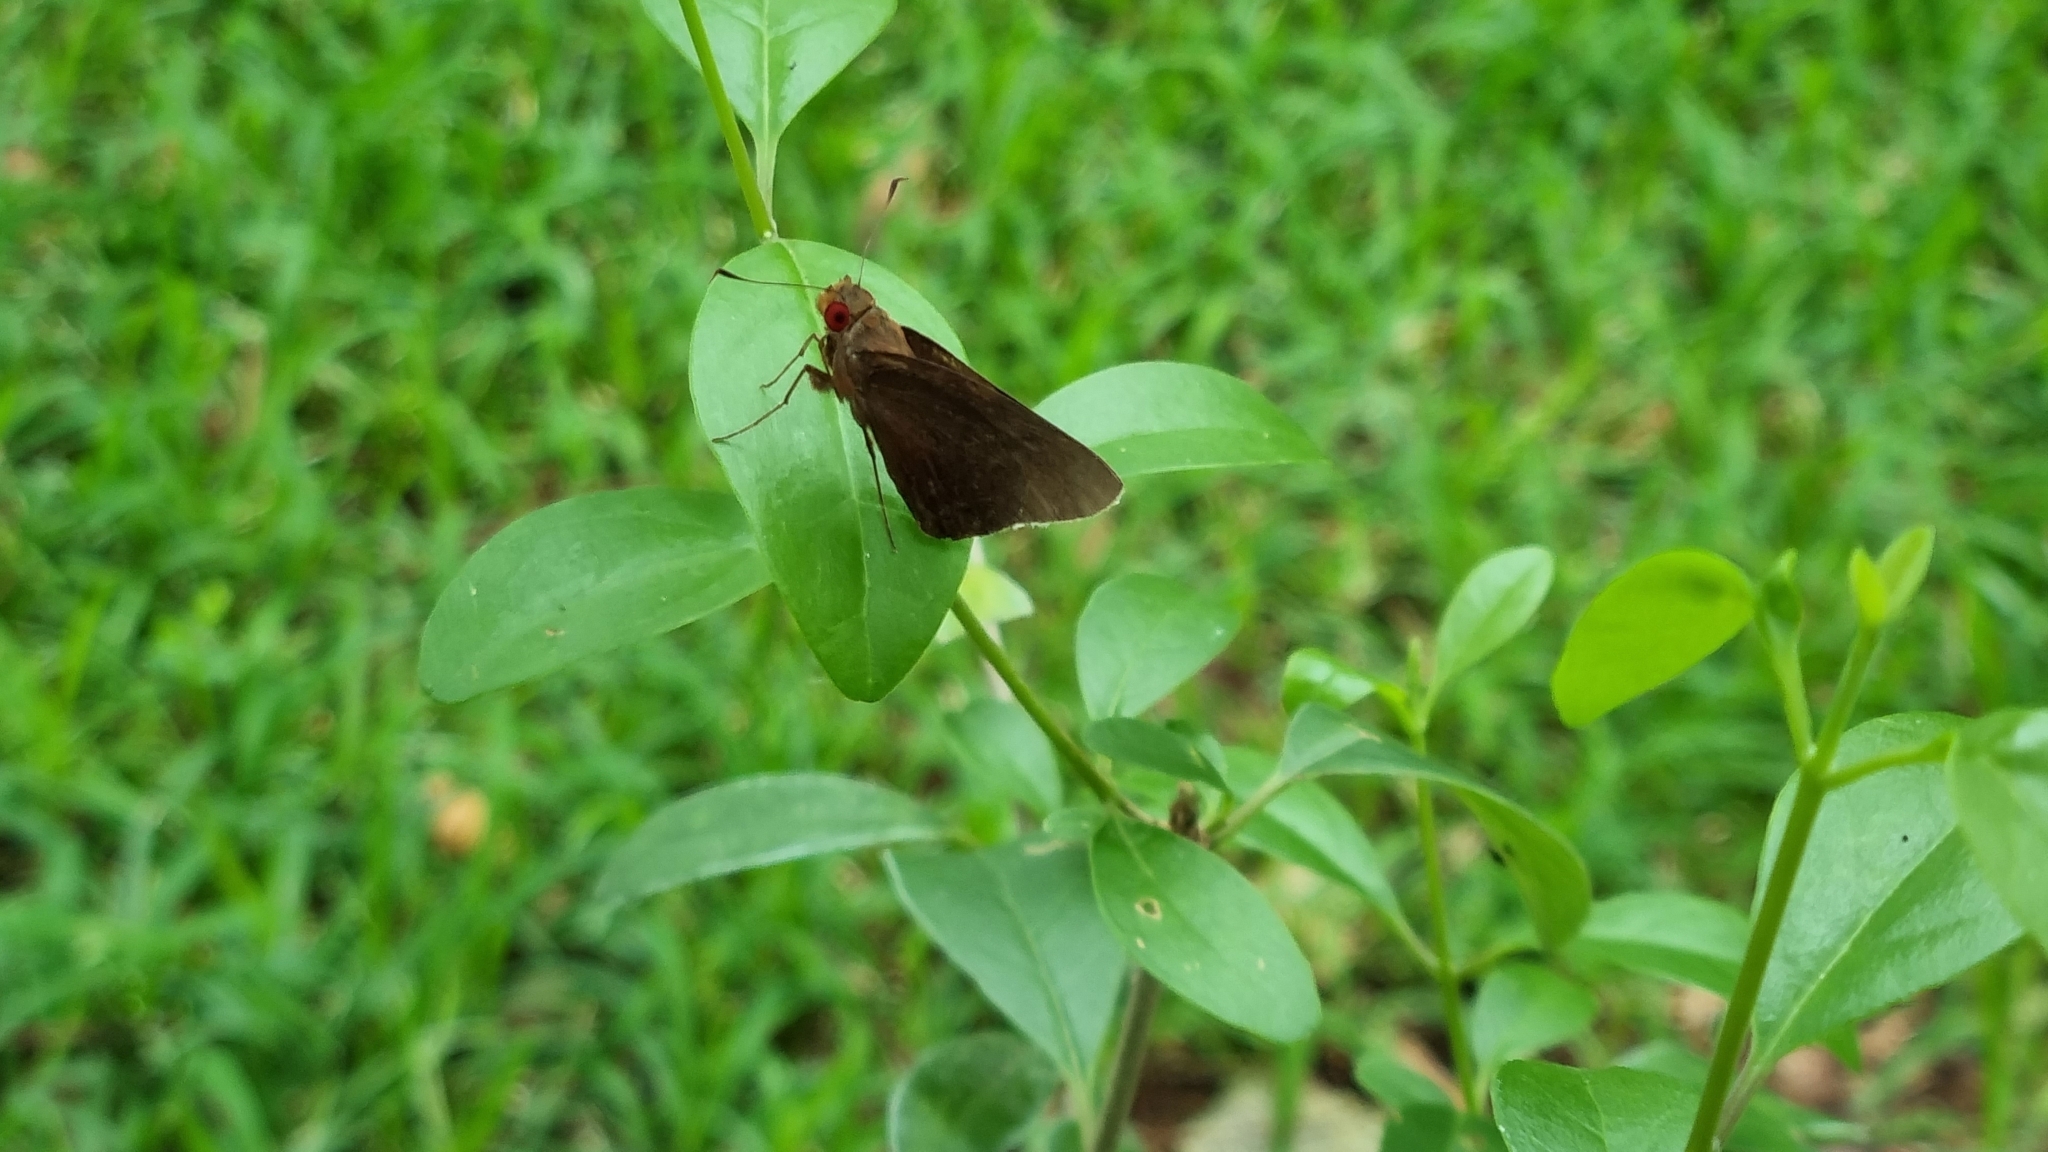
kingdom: Animalia
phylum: Arthropoda
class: Insecta
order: Lepidoptera
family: Hesperiidae
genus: Matapa
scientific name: Matapa aria
